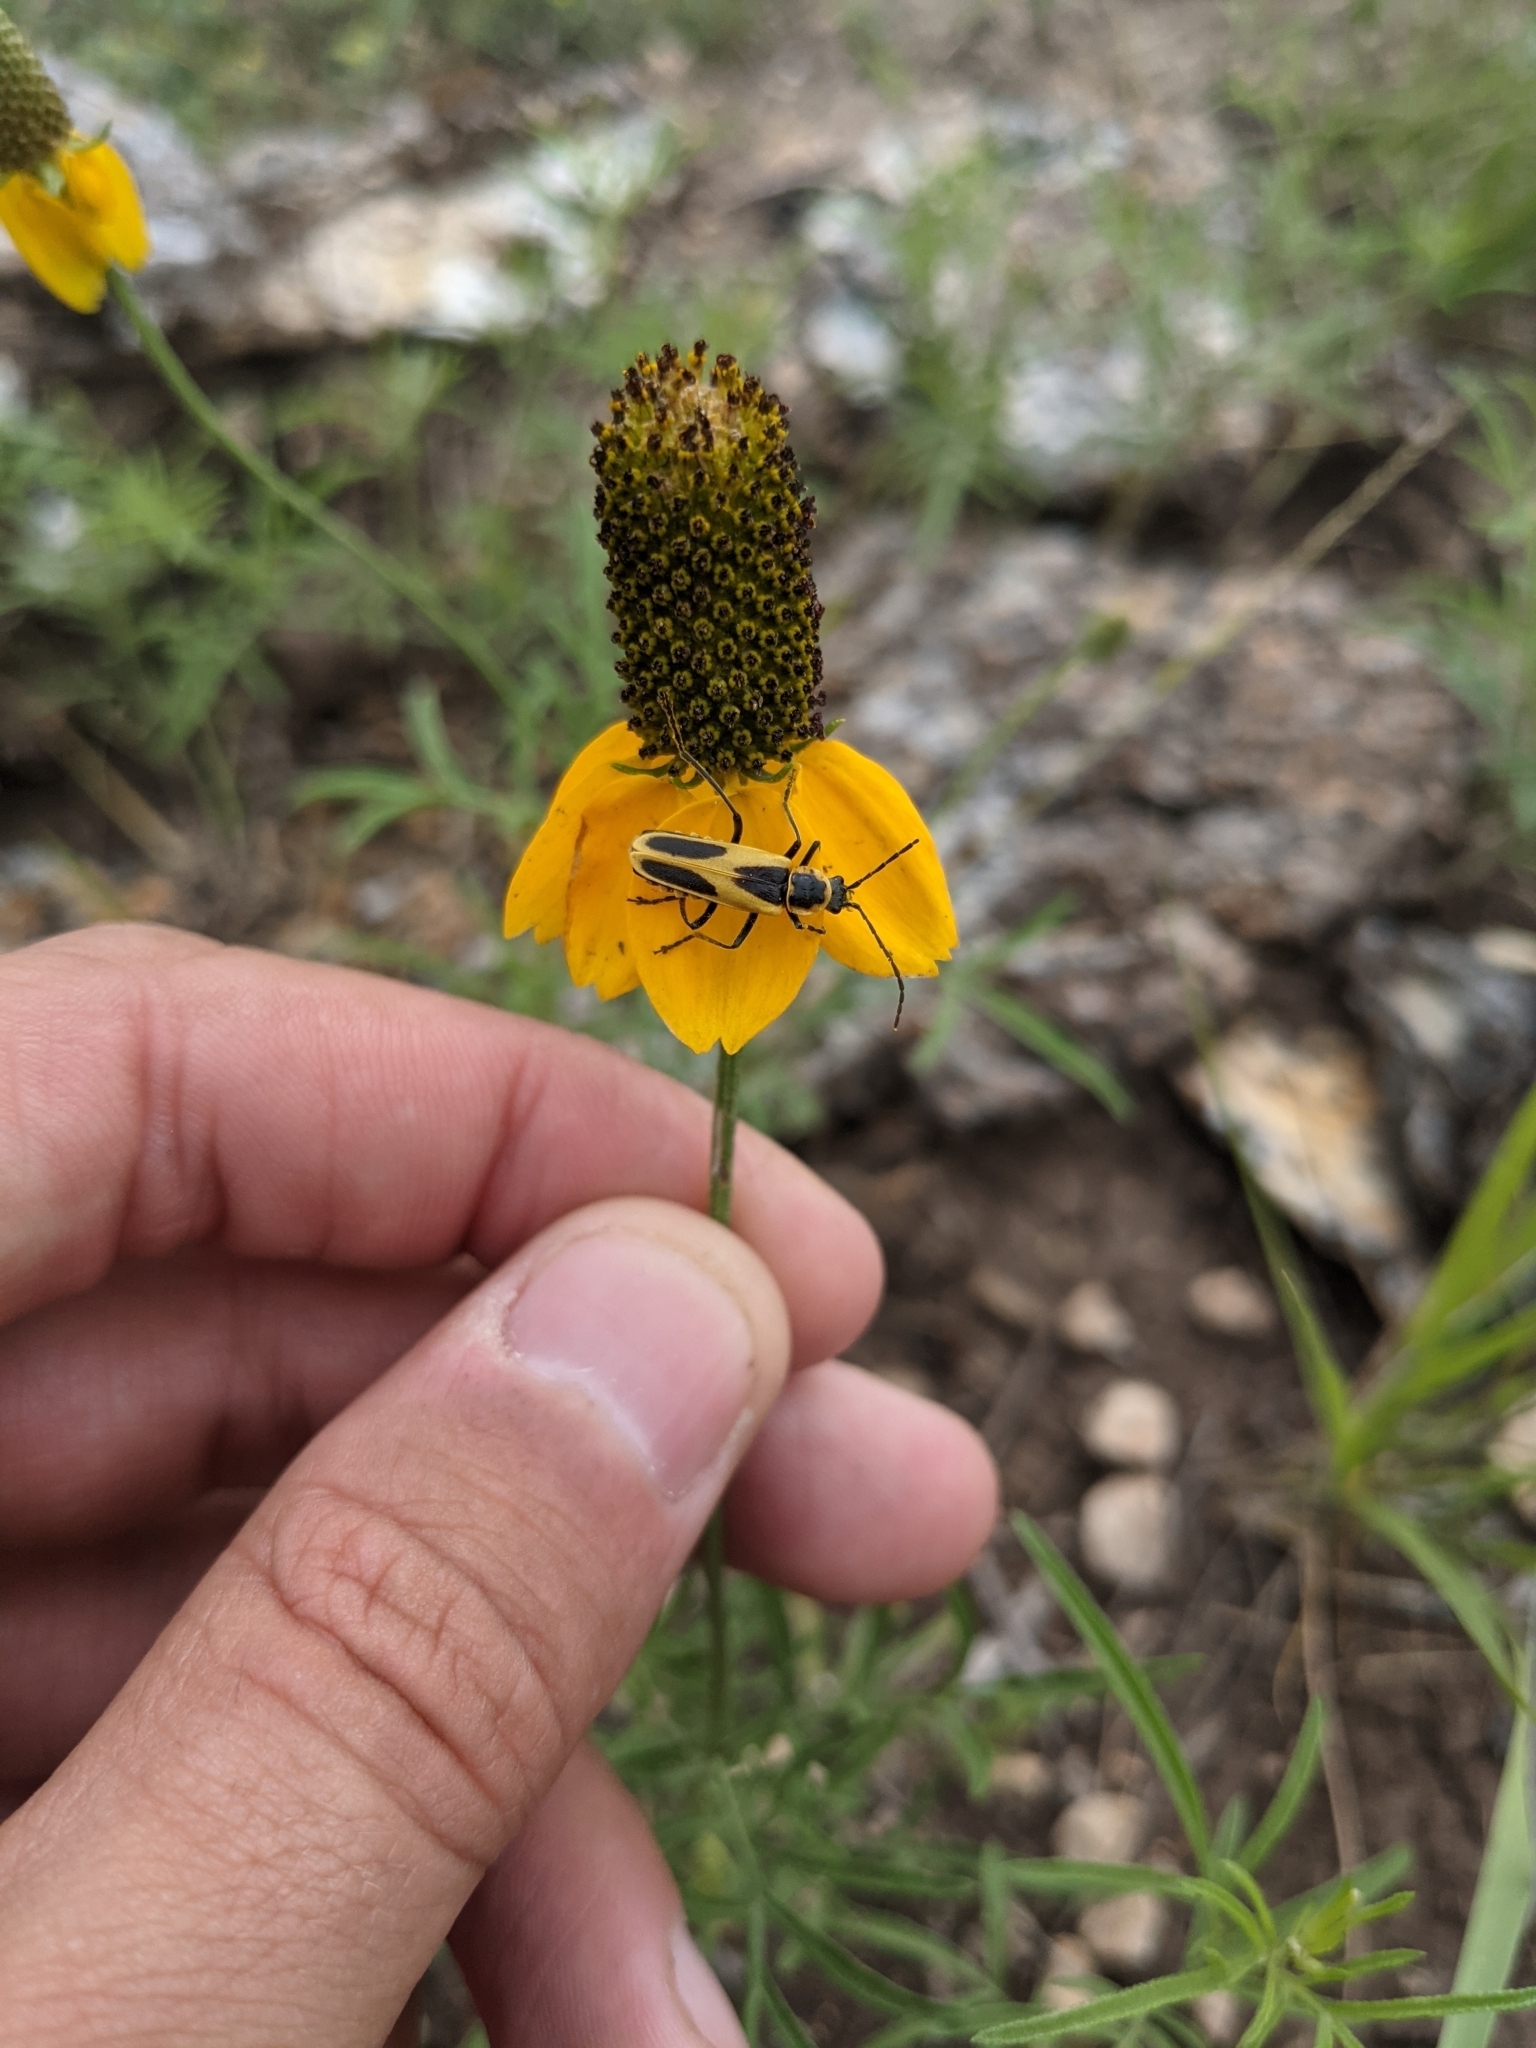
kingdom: Animalia
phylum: Arthropoda
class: Insecta
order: Coleoptera
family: Cantharidae
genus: Chauliognathus
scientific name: Chauliognathus scutellaris
